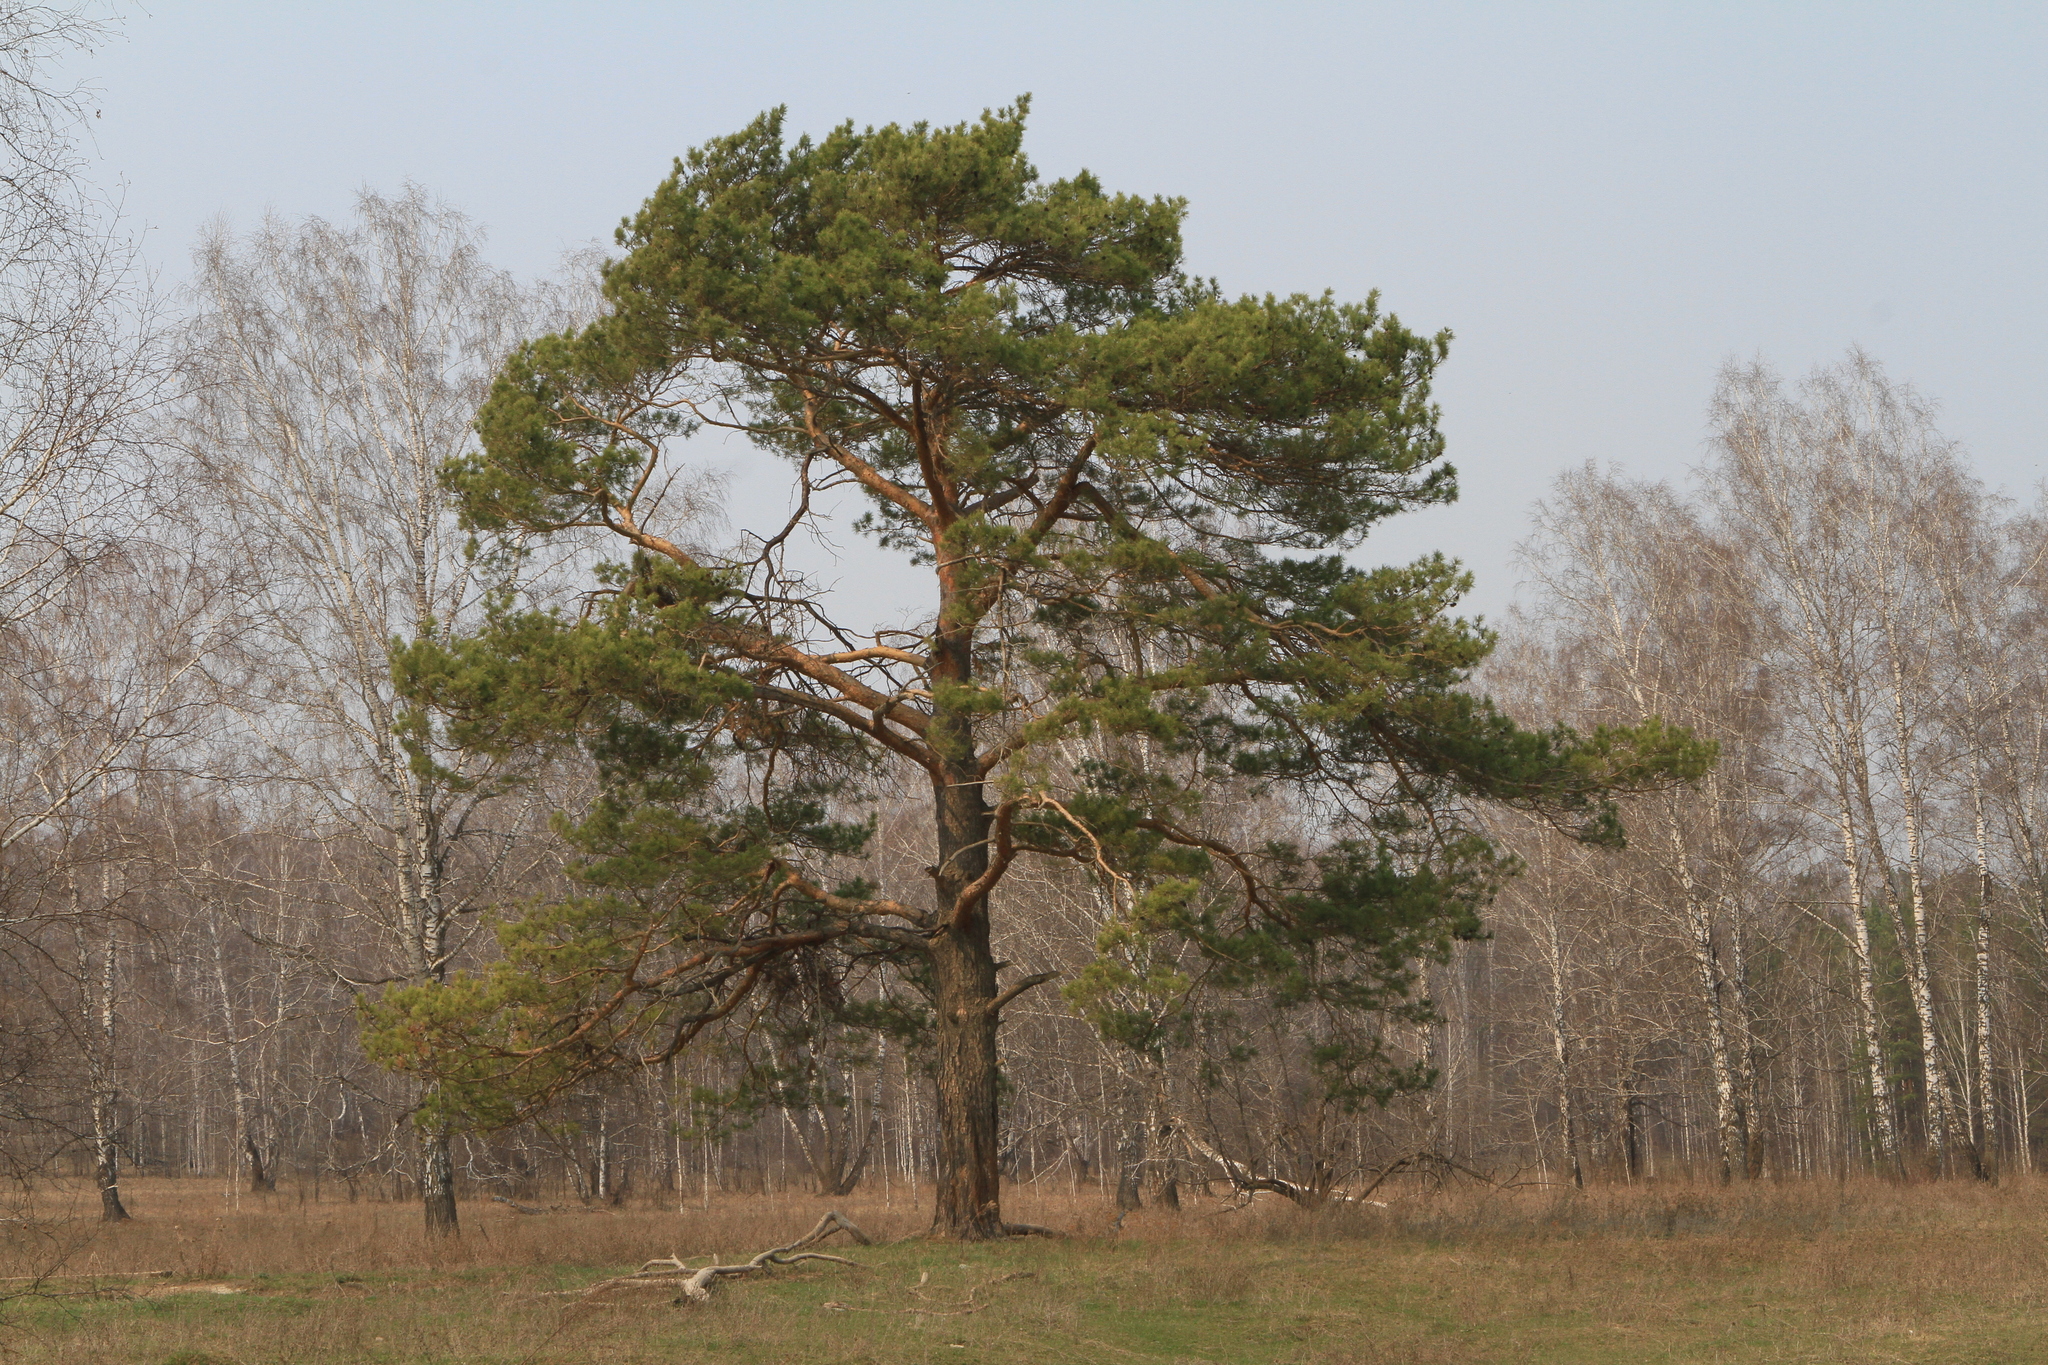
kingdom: Plantae
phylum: Tracheophyta
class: Pinopsida
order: Pinales
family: Pinaceae
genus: Pinus
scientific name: Pinus sylvestris
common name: Scots pine
